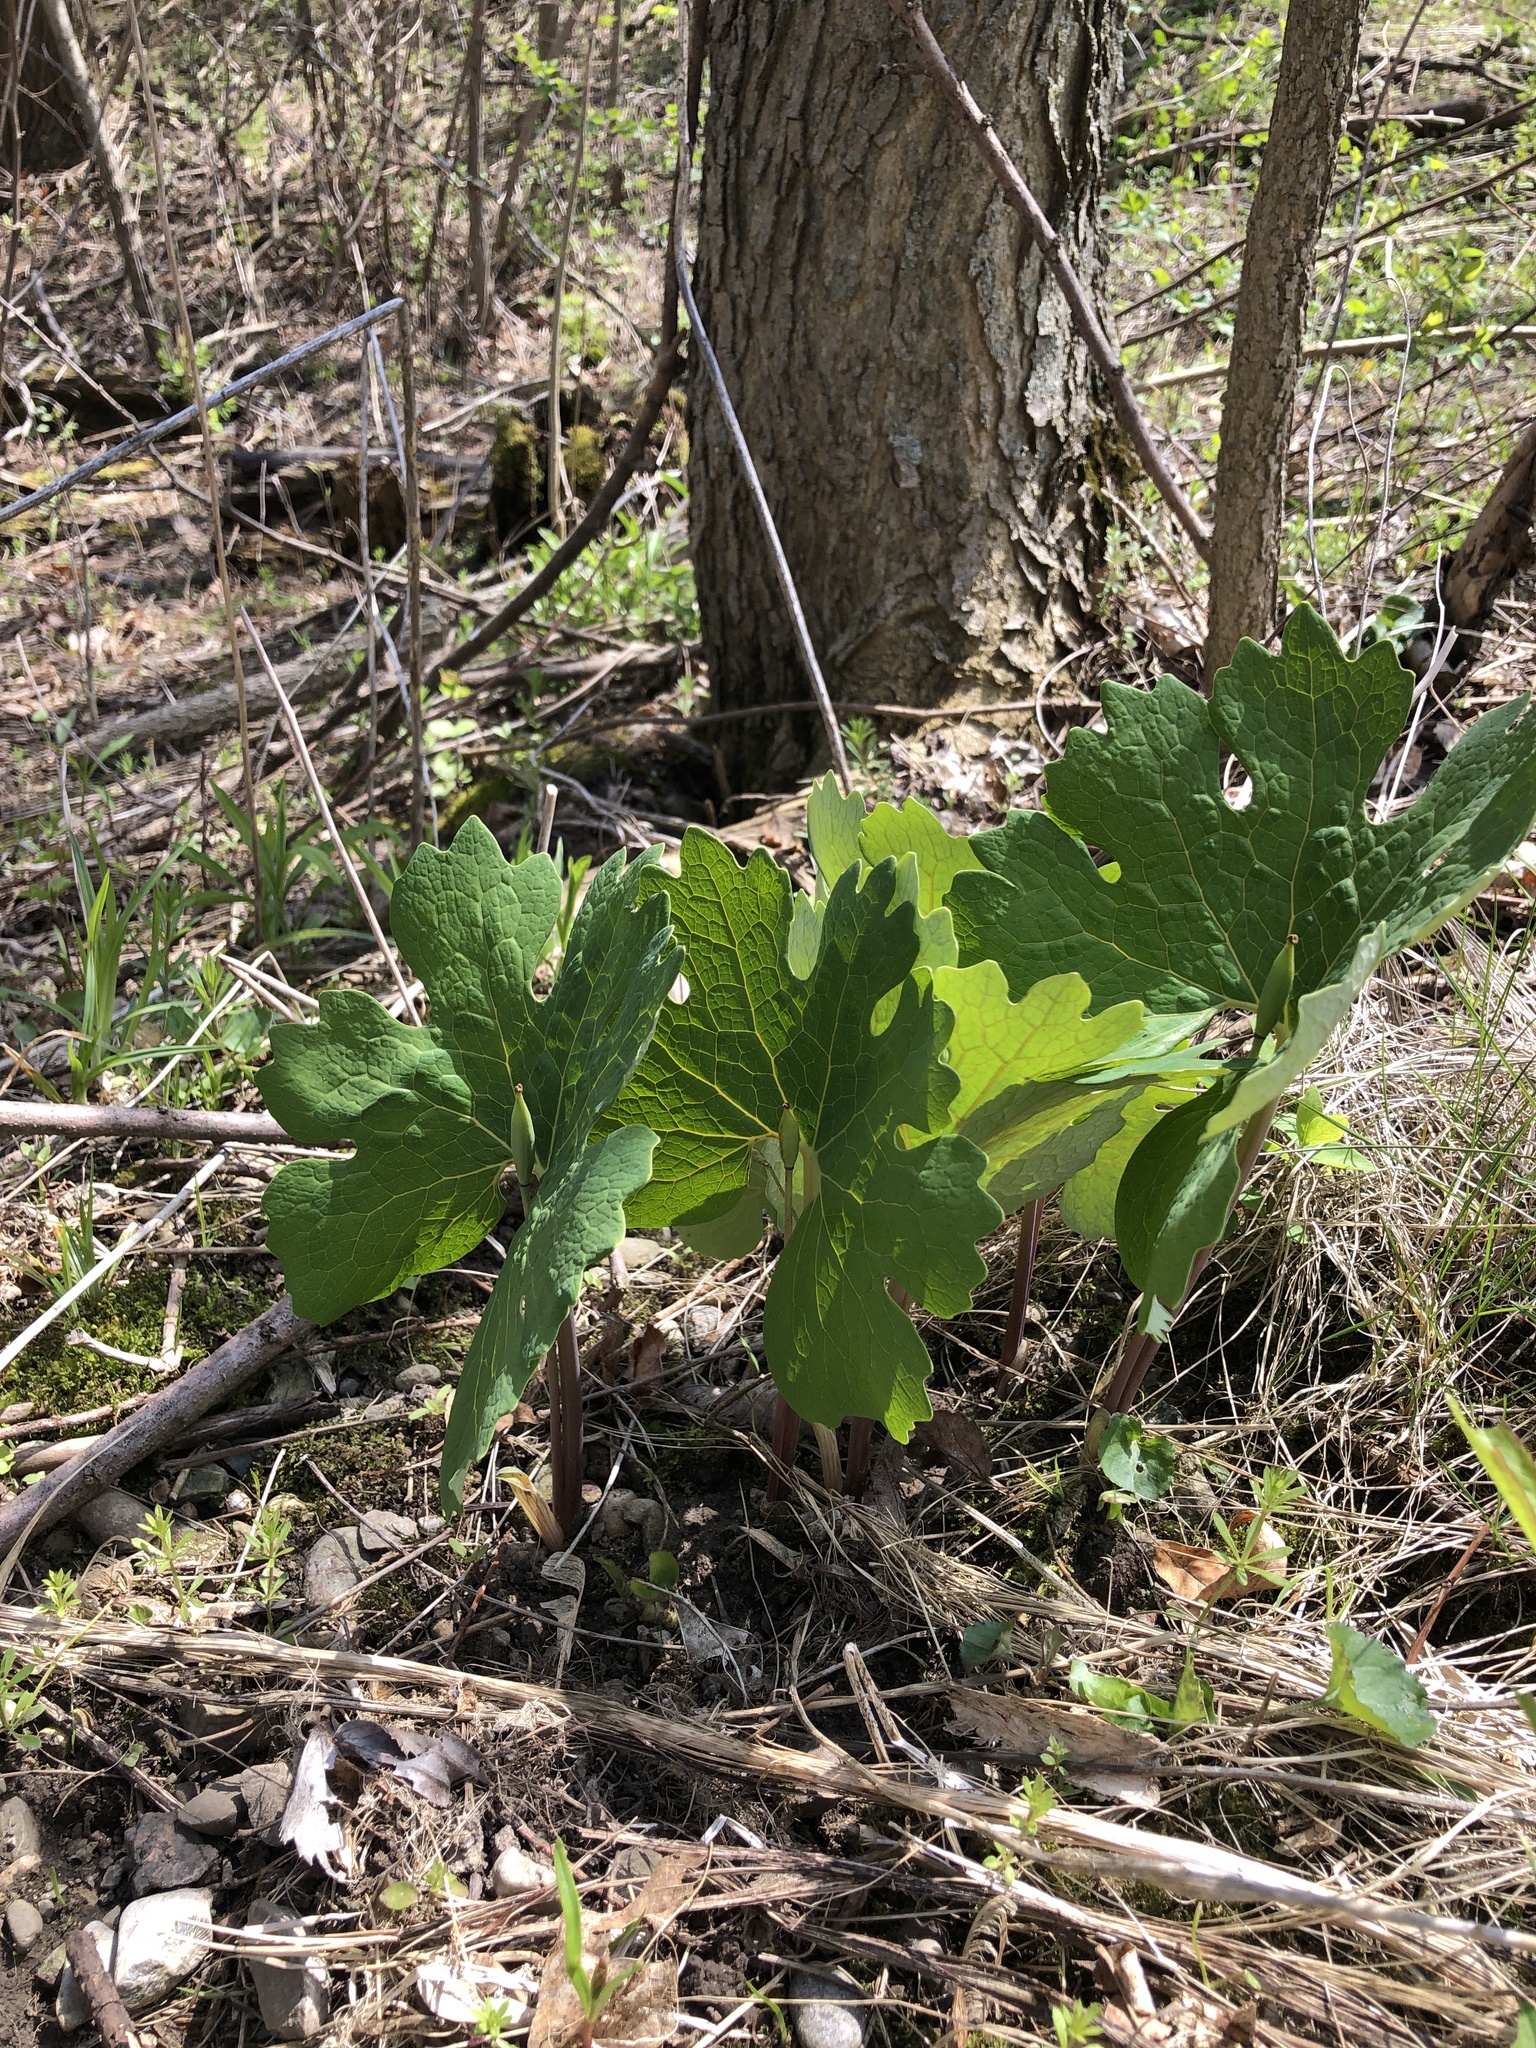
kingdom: Plantae
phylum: Tracheophyta
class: Magnoliopsida
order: Ranunculales
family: Papaveraceae
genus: Sanguinaria
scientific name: Sanguinaria canadensis
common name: Bloodroot
